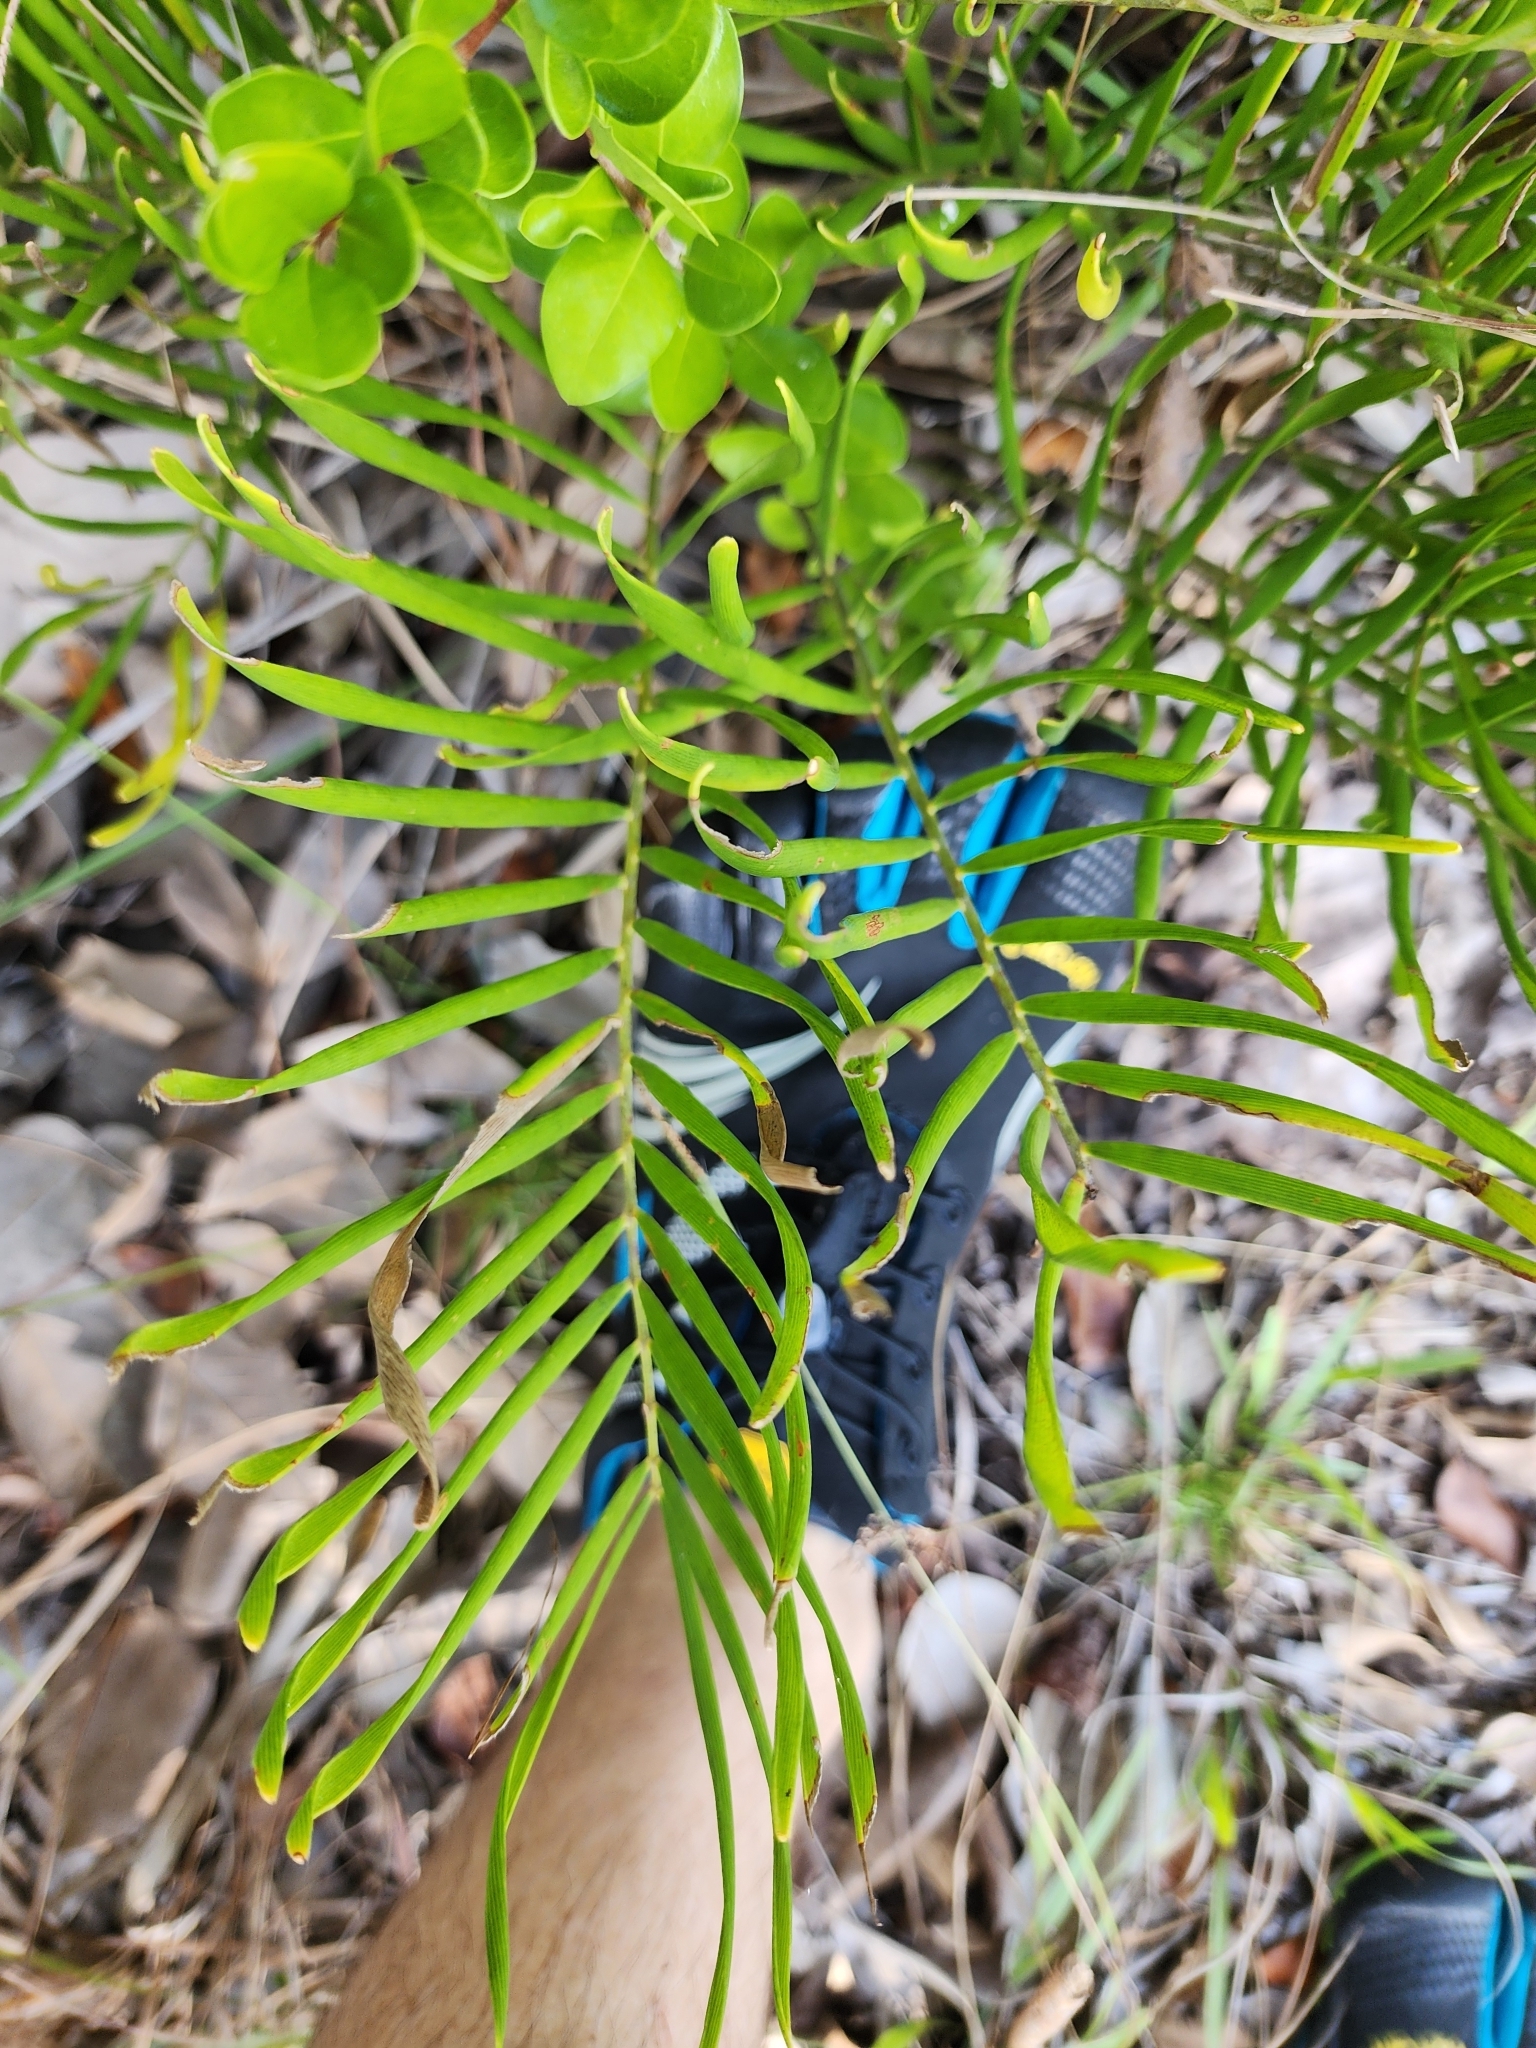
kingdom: Plantae
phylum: Tracheophyta
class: Cycadopsida
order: Cycadales
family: Zamiaceae
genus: Zamia
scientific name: Zamia integrifolia
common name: Florida arrowroot
